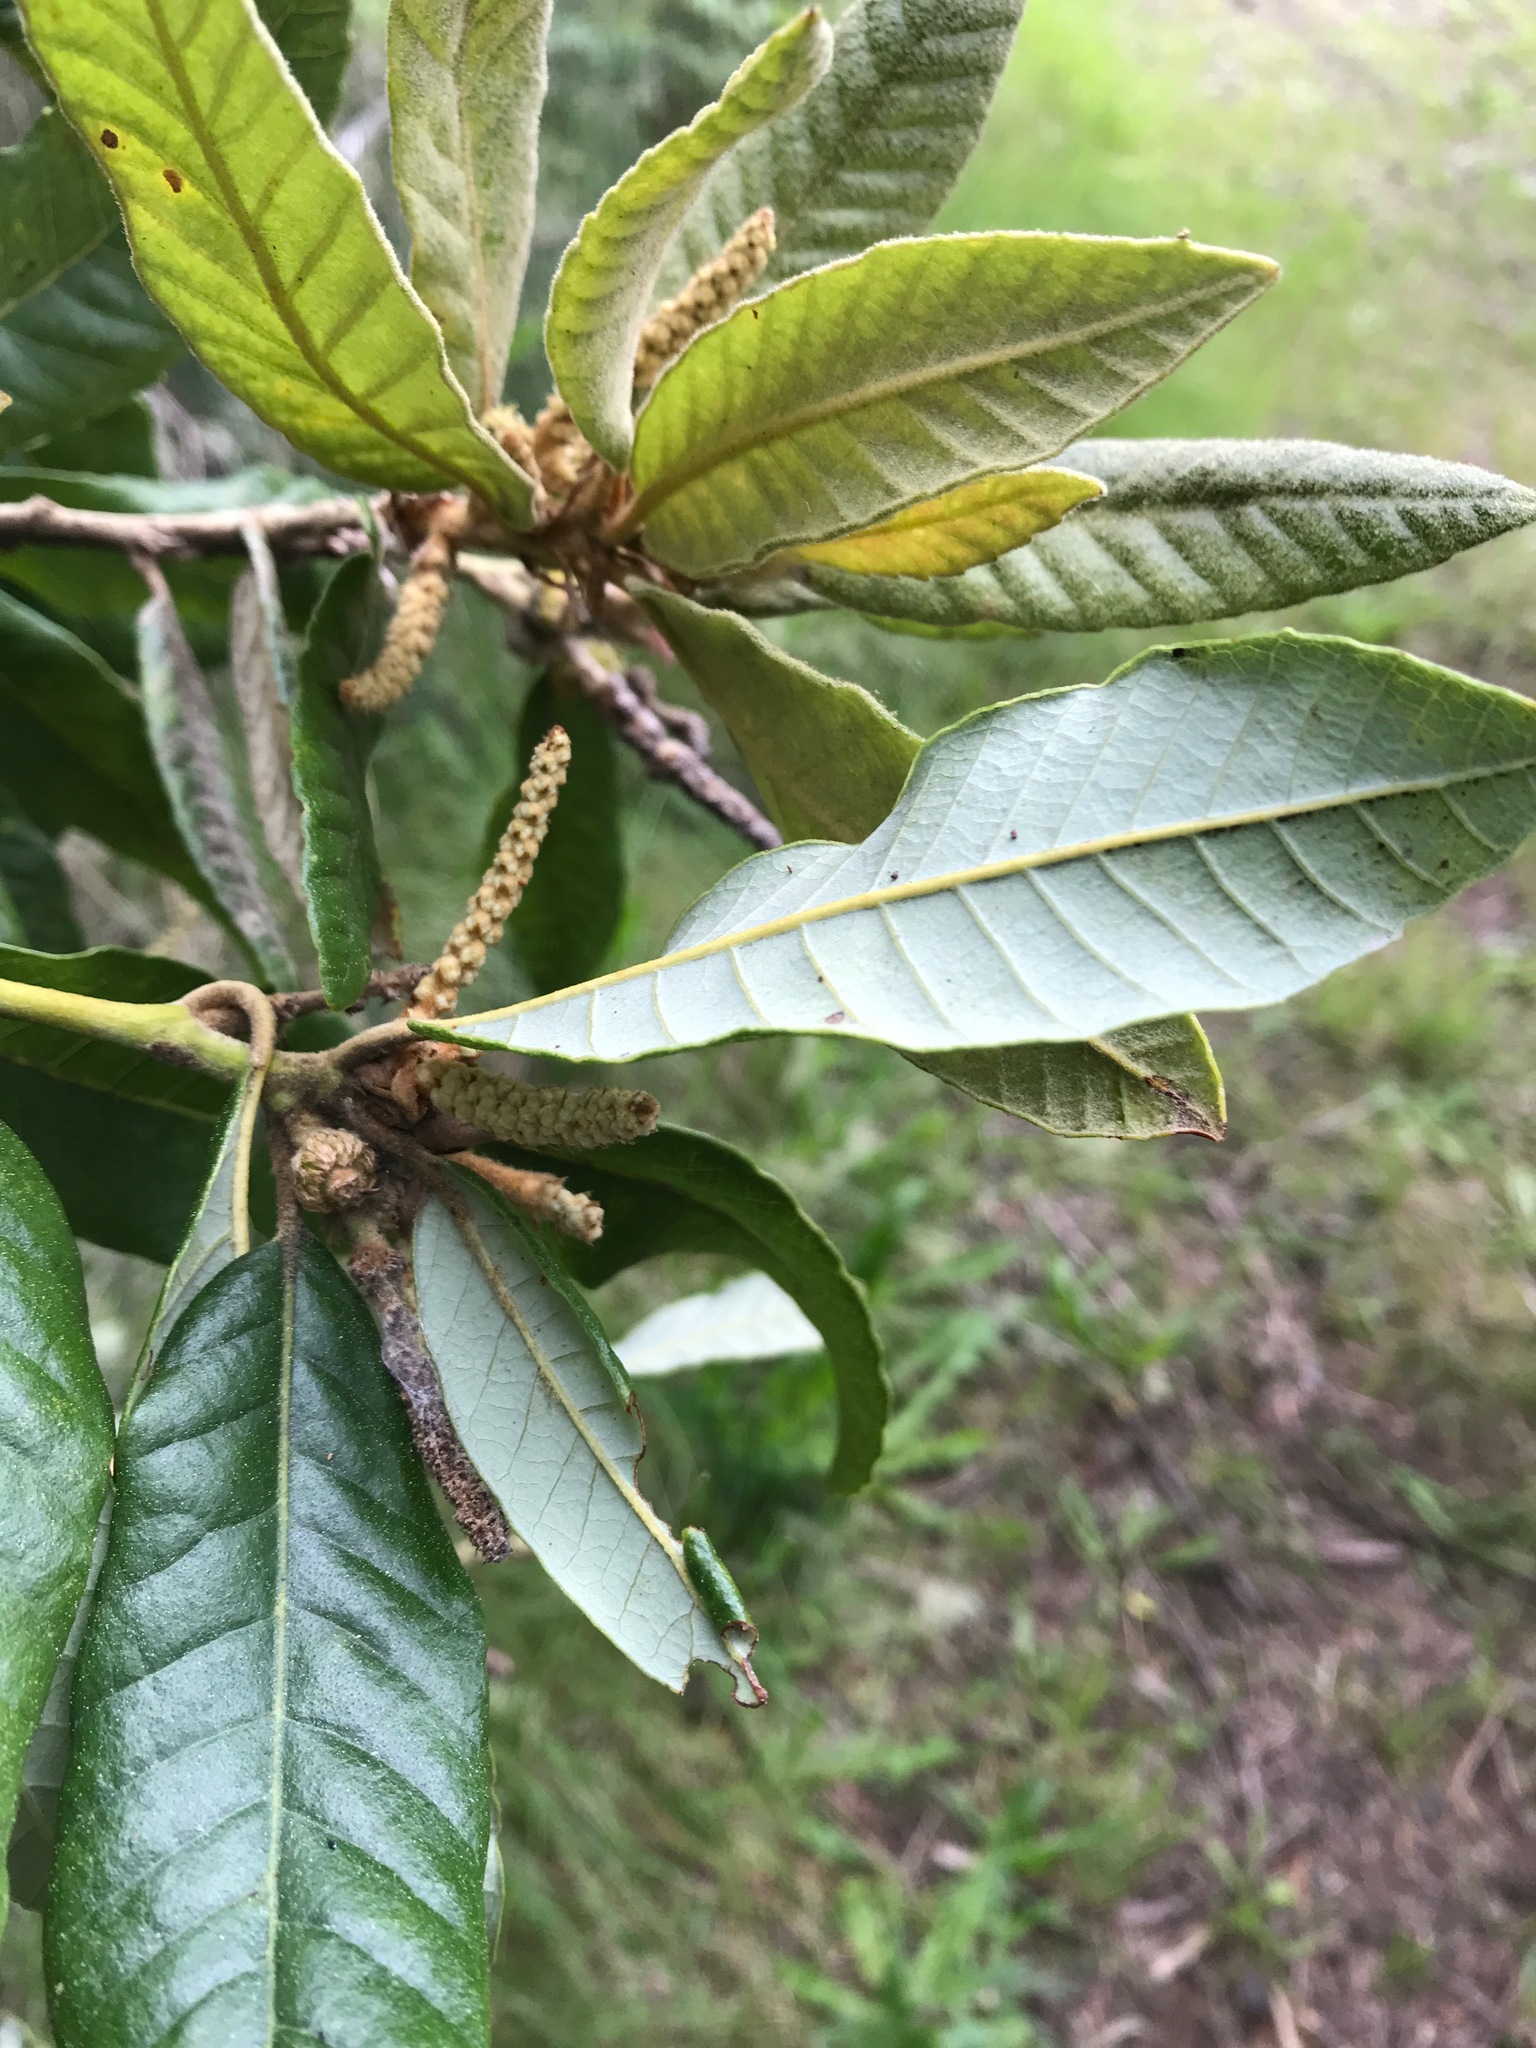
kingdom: Plantae
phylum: Tracheophyta
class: Magnoliopsida
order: Fagales
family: Fagaceae
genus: Notholithocarpus
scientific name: Notholithocarpus densiflorus
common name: Tan bark oak
